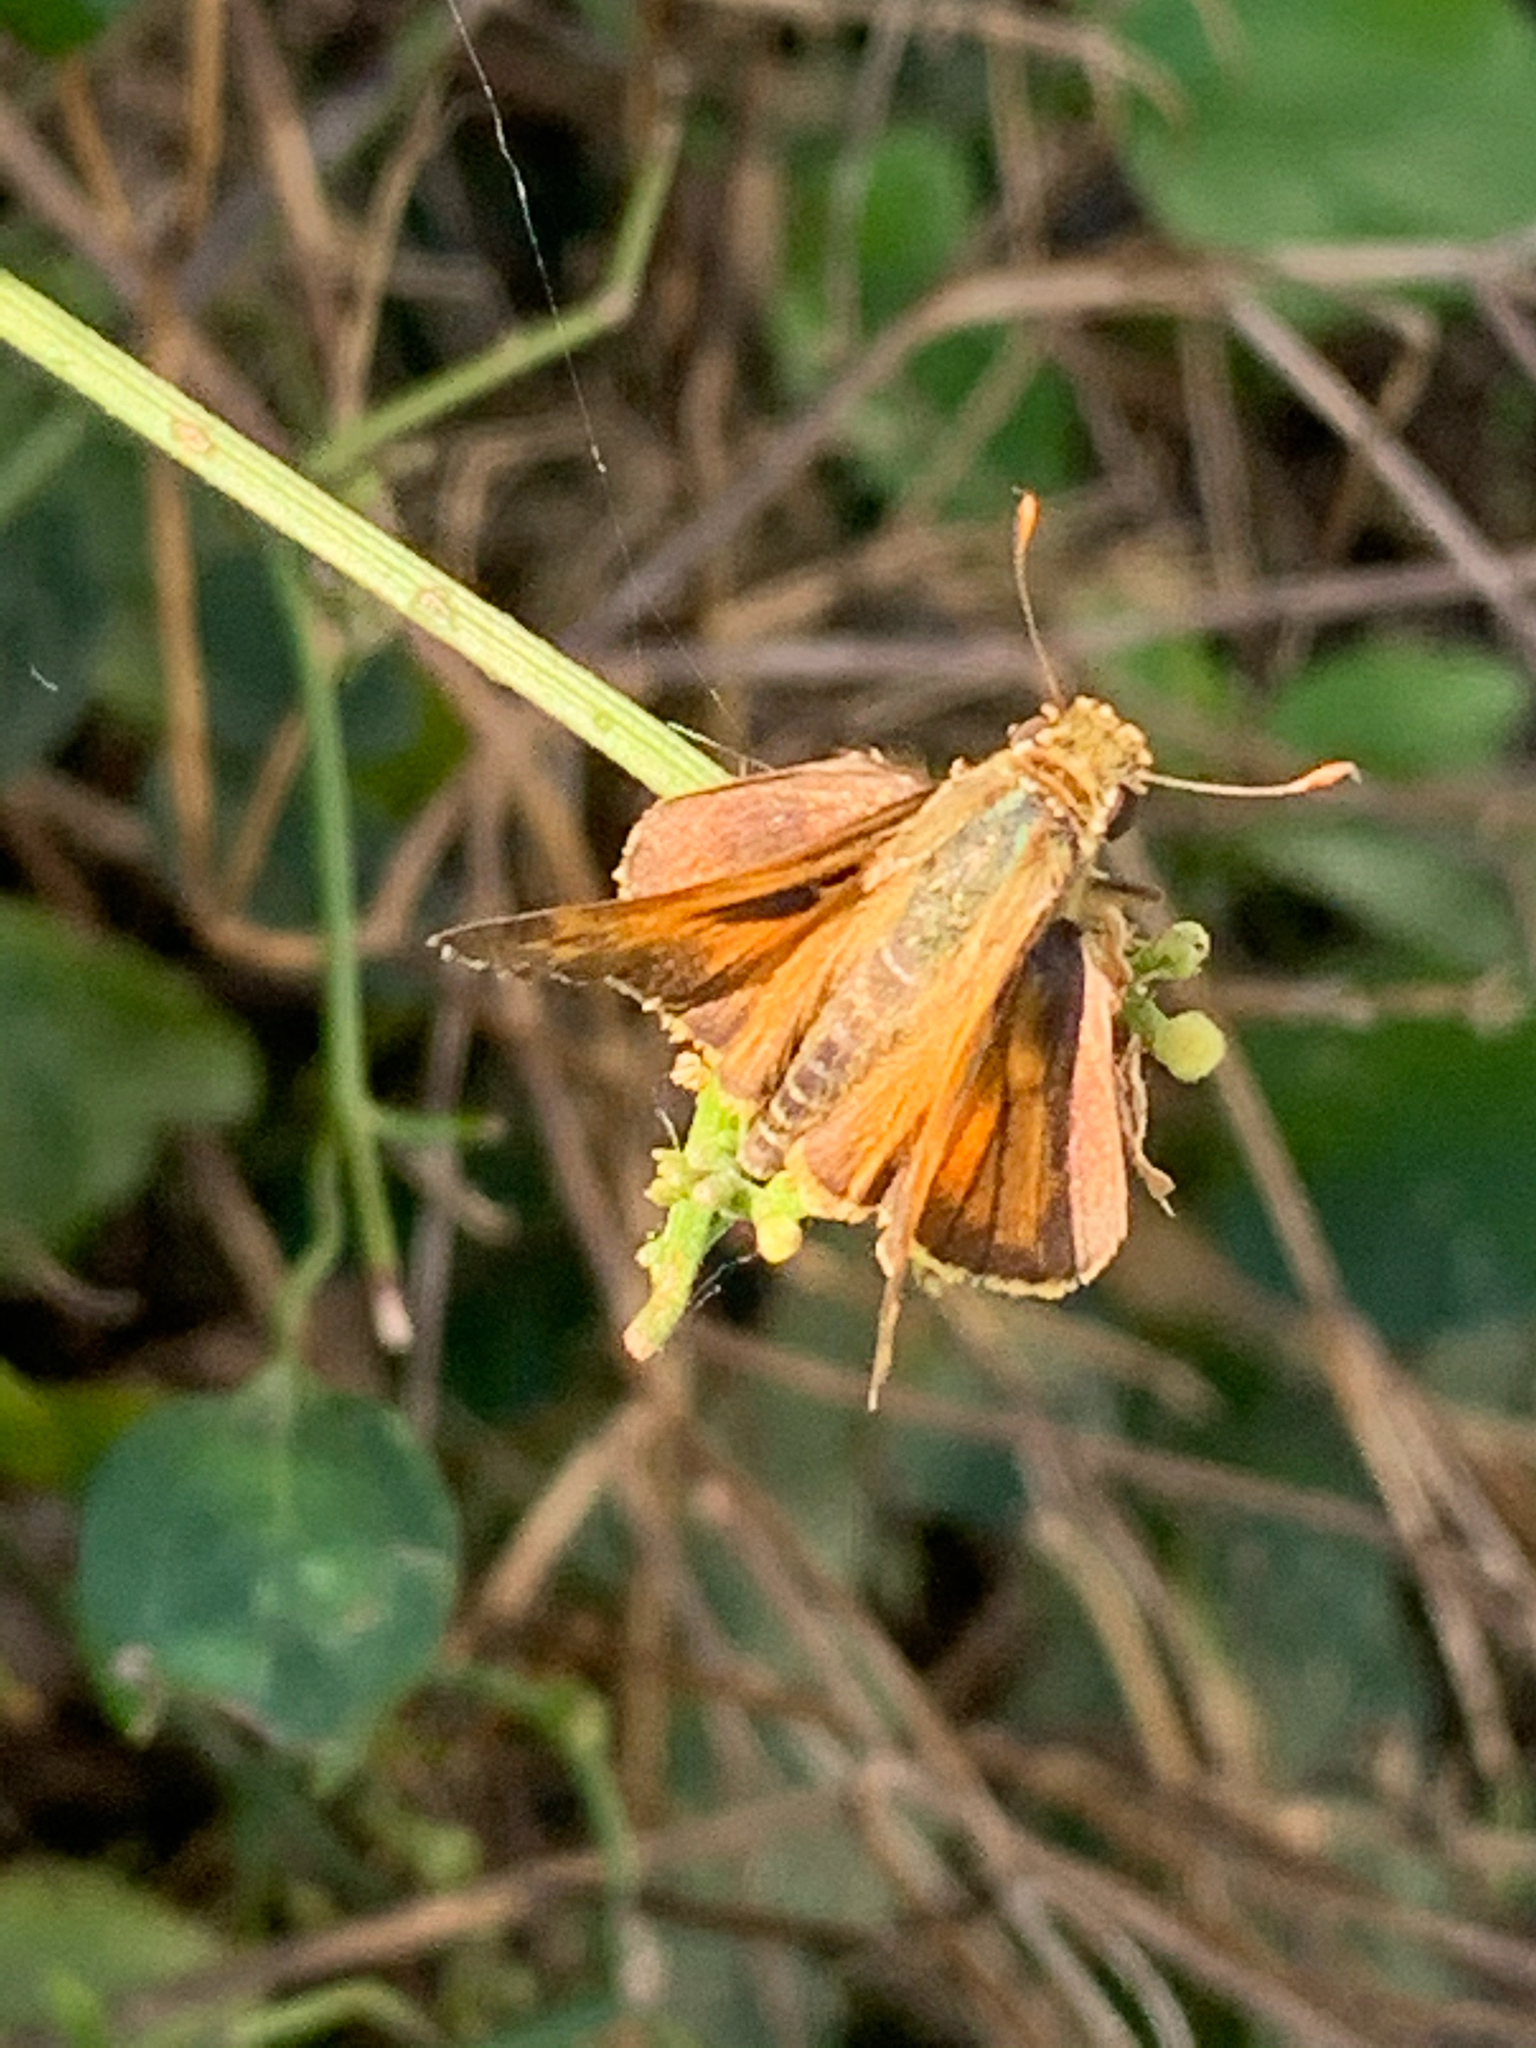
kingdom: Animalia
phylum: Arthropoda
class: Insecta
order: Lepidoptera
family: Hesperiidae
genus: Atalopedes
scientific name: Atalopedes
